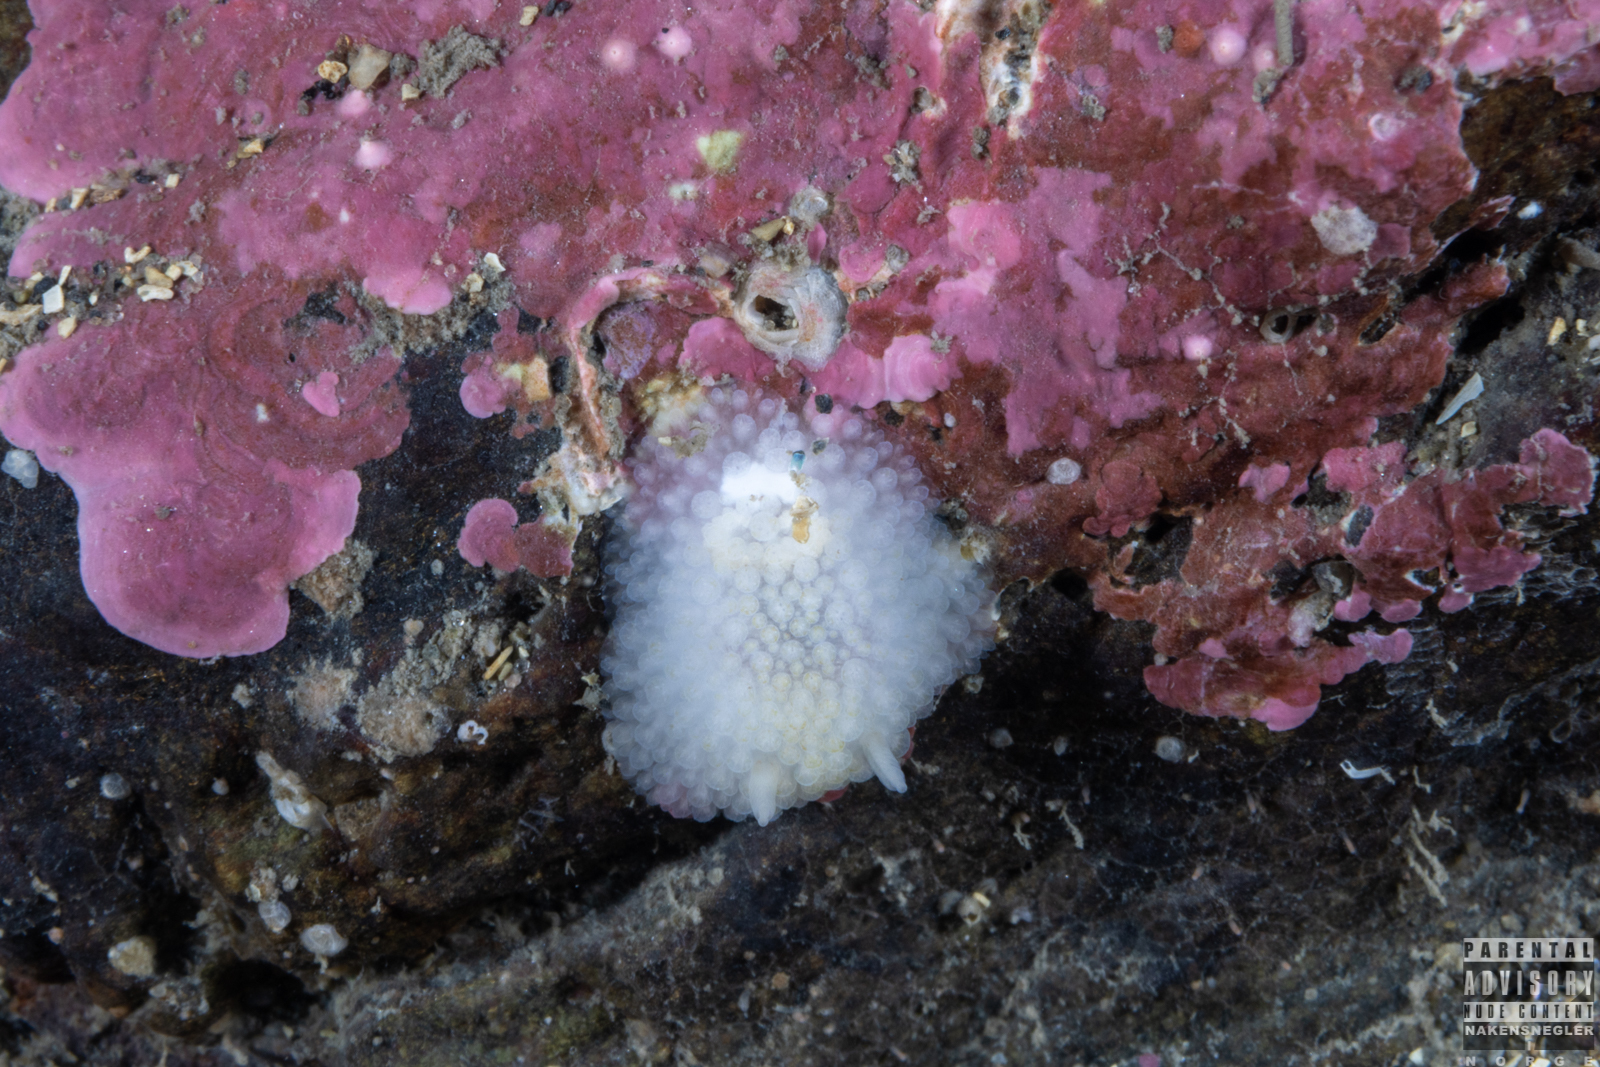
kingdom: Animalia
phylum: Mollusca
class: Gastropoda
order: Nudibranchia
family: Onchidorididae
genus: Onchidoris
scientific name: Onchidoris bilamellata
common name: Barnacle-eating onchidoris
